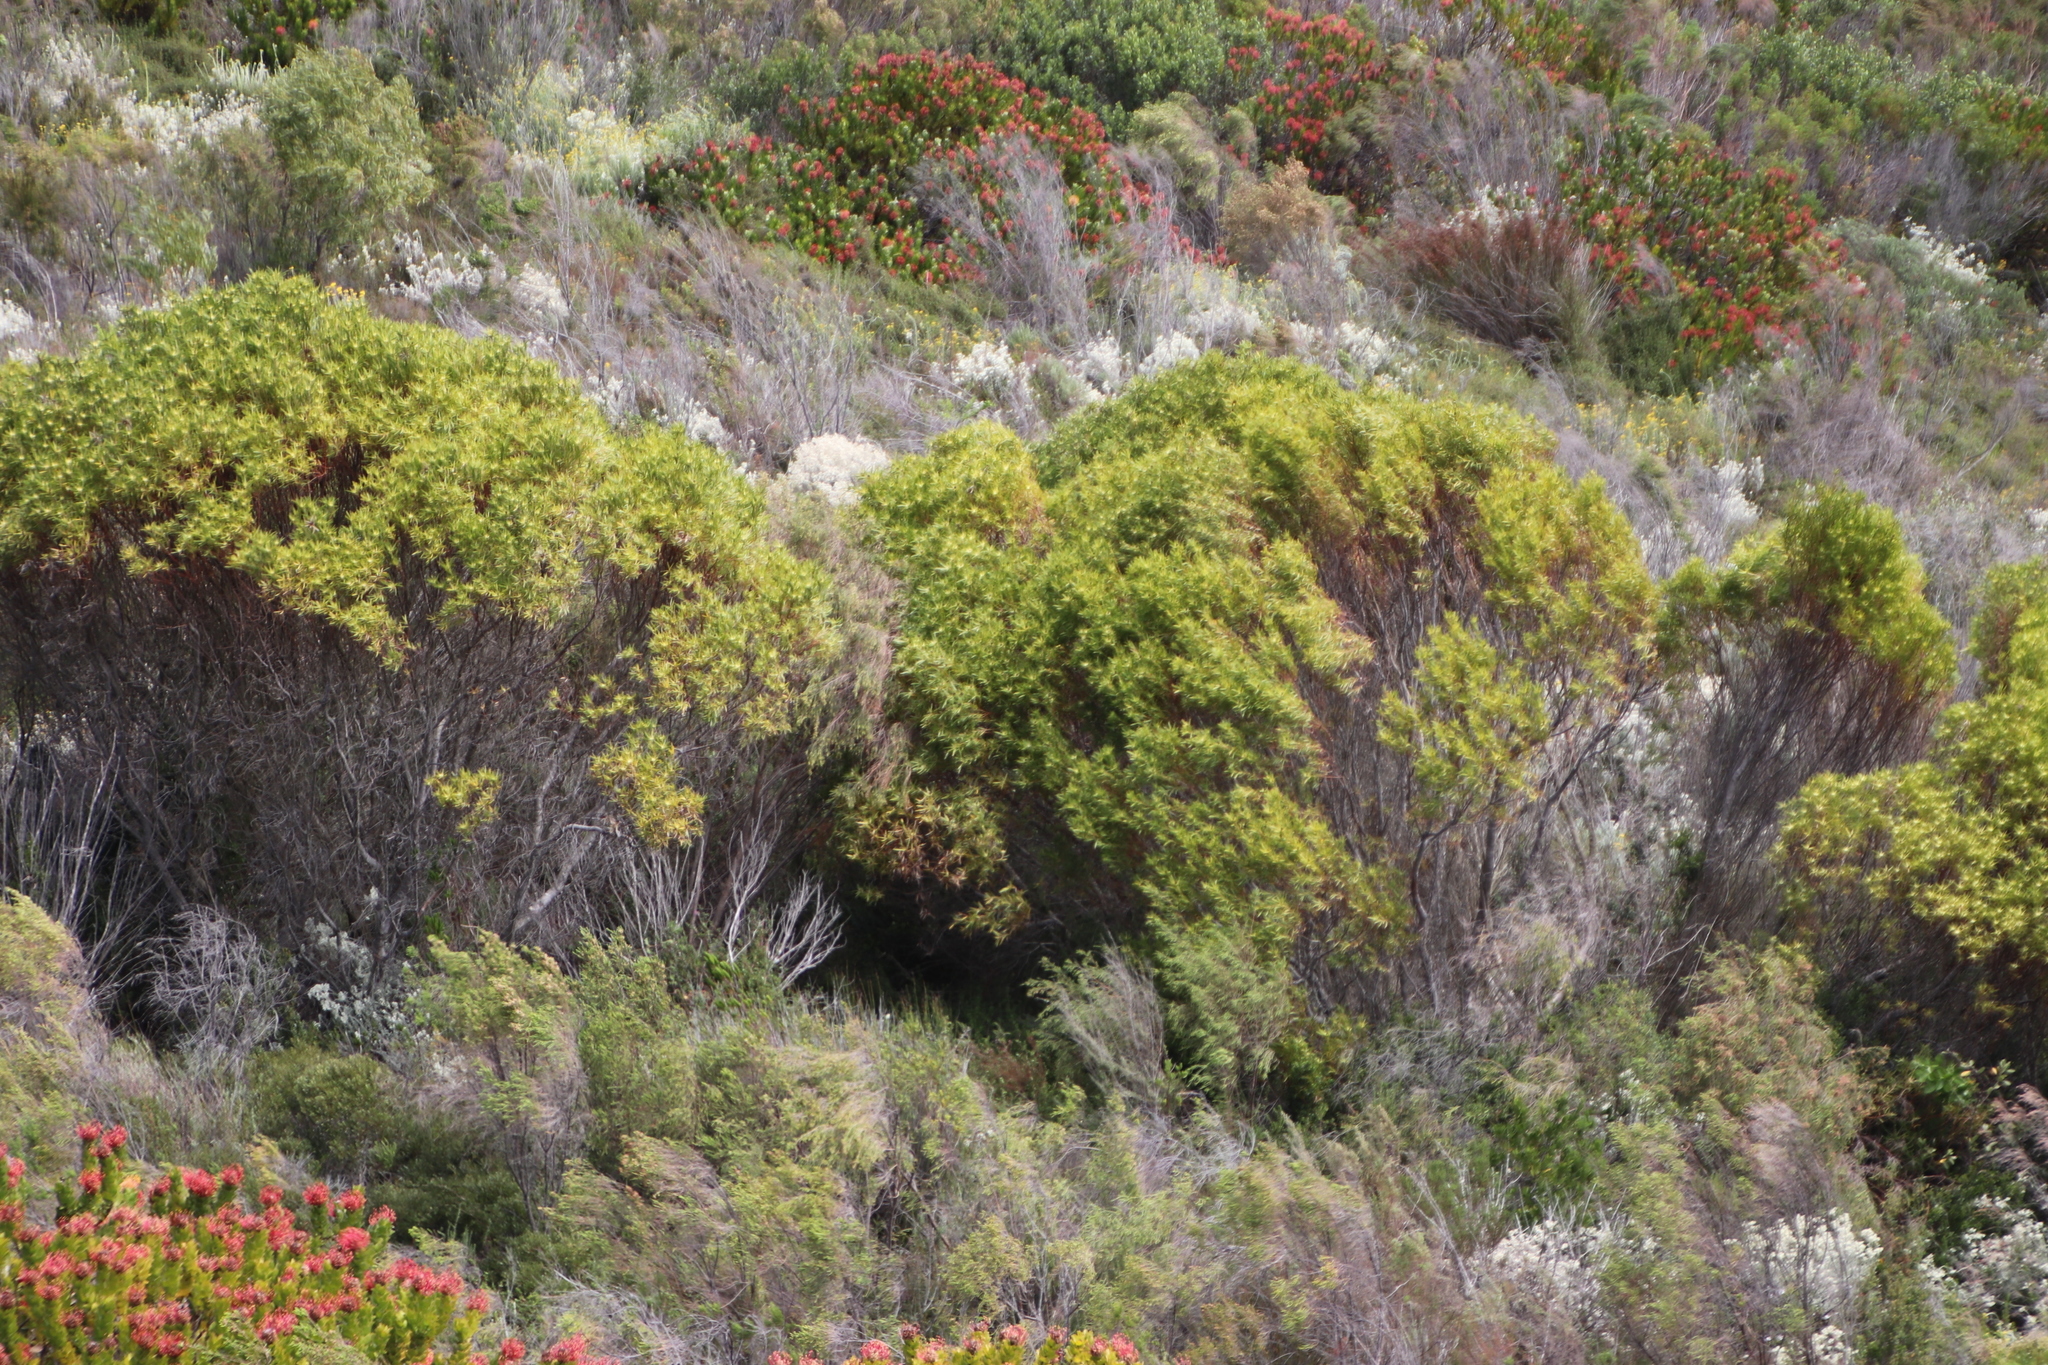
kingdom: Plantae
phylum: Tracheophyta
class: Magnoliopsida
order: Proteales
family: Proteaceae
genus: Leucadendron
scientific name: Leucadendron coniferum
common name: Dune conebush
